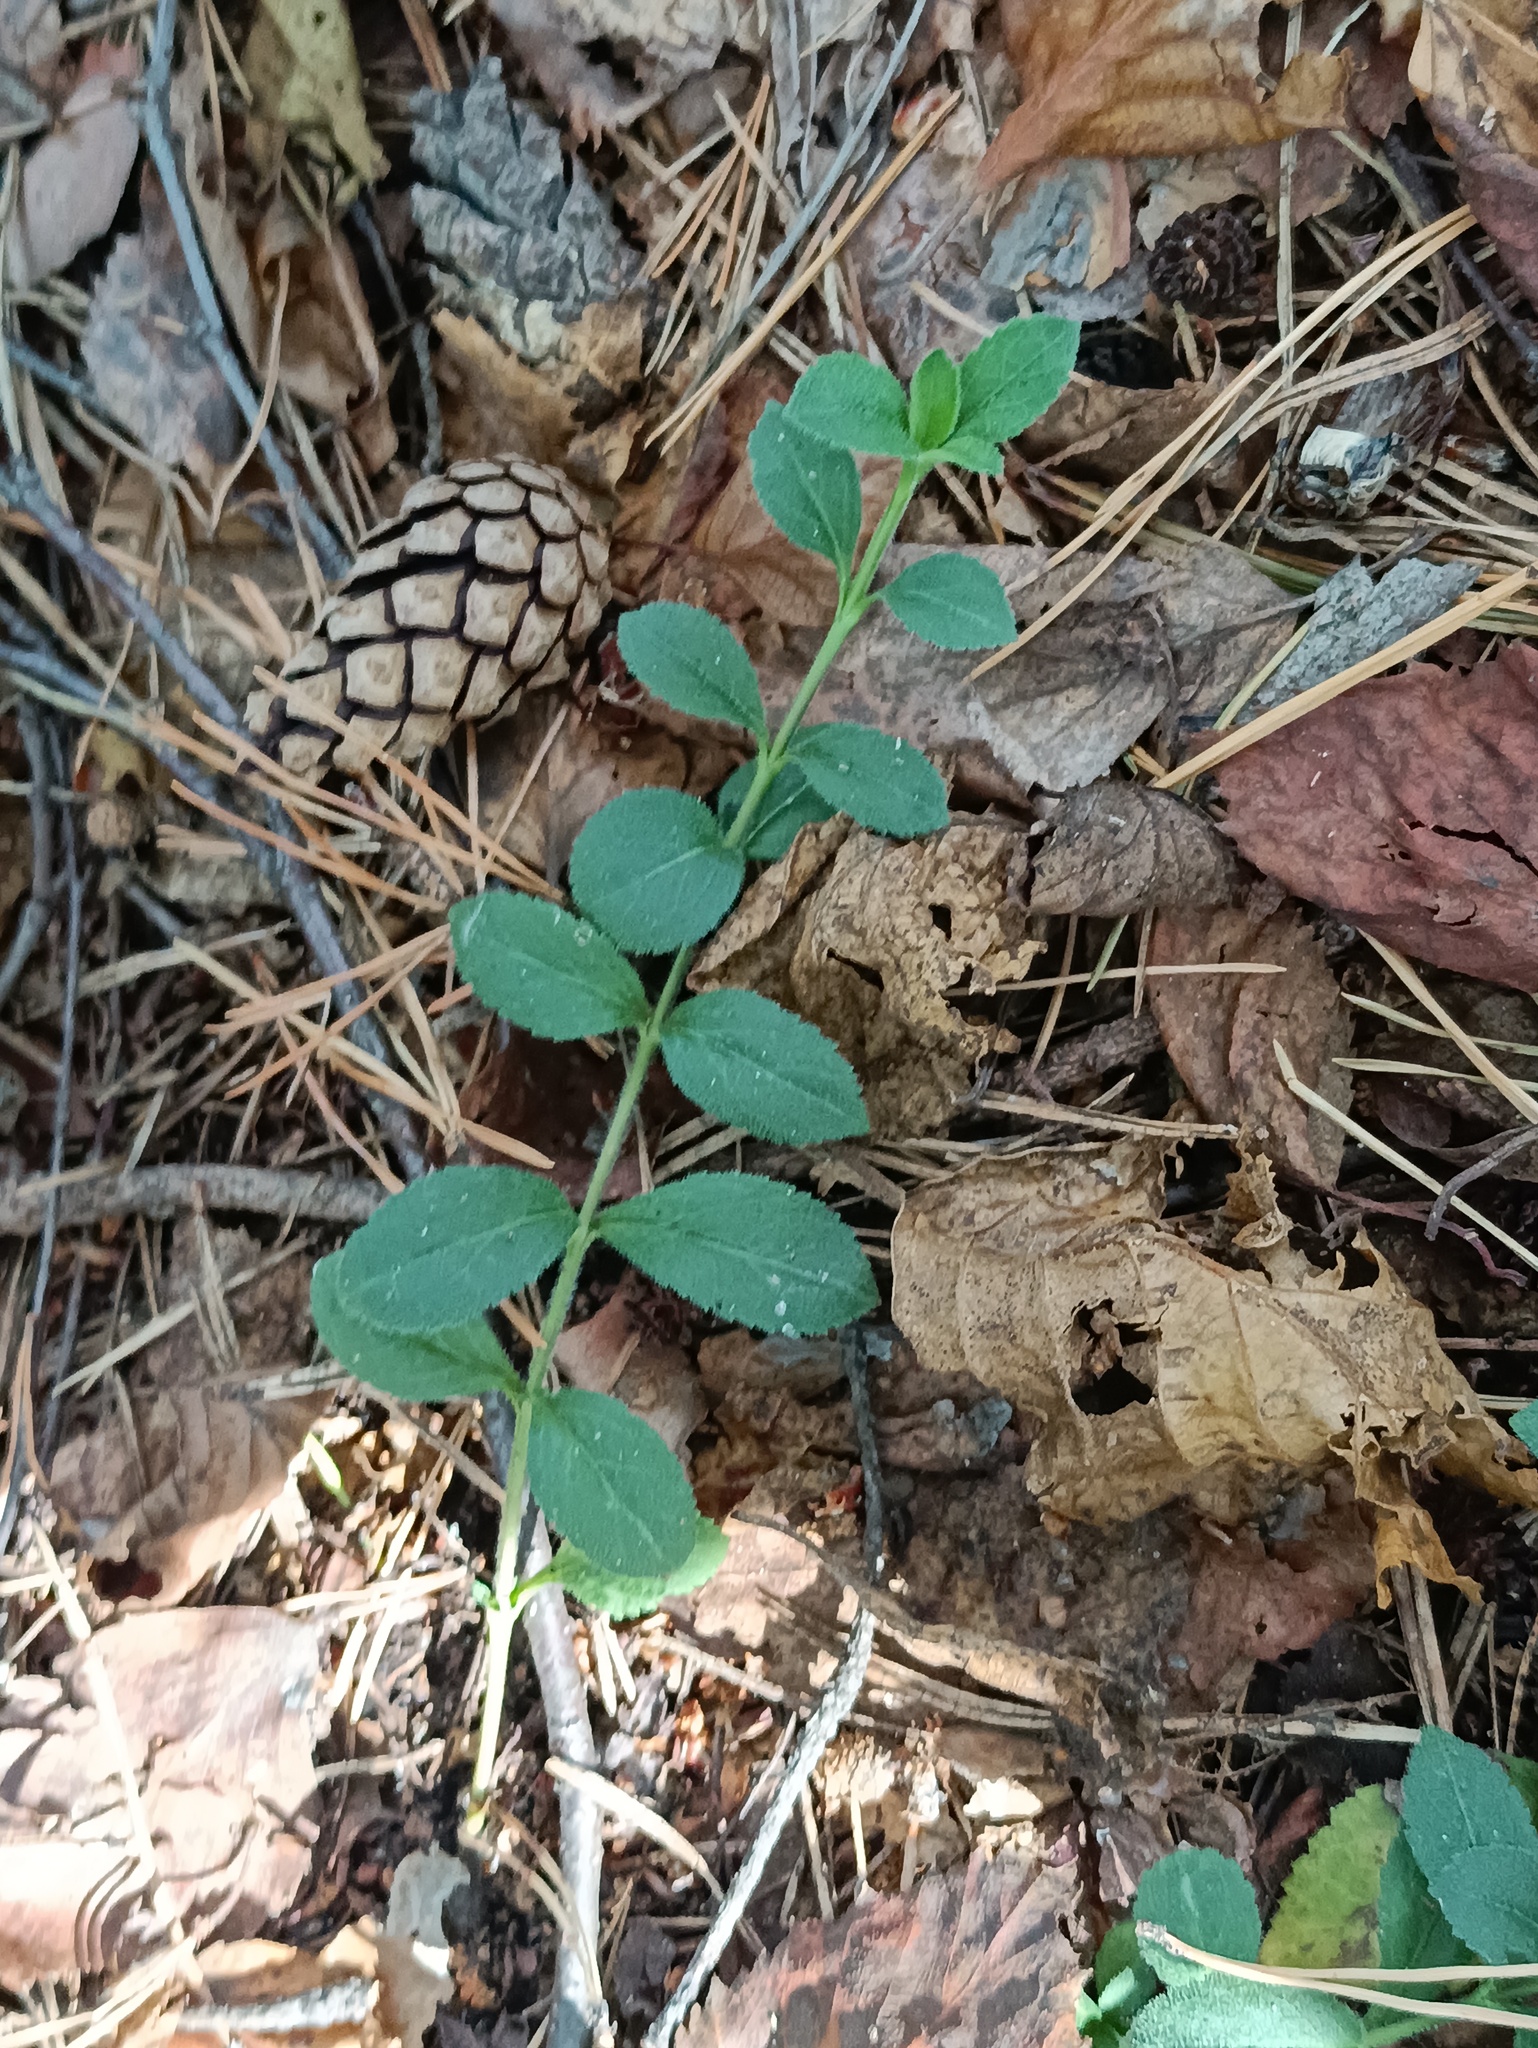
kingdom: Plantae
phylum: Tracheophyta
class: Magnoliopsida
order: Lamiales
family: Plantaginaceae
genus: Veronica
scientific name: Veronica officinalis
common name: Common speedwell
